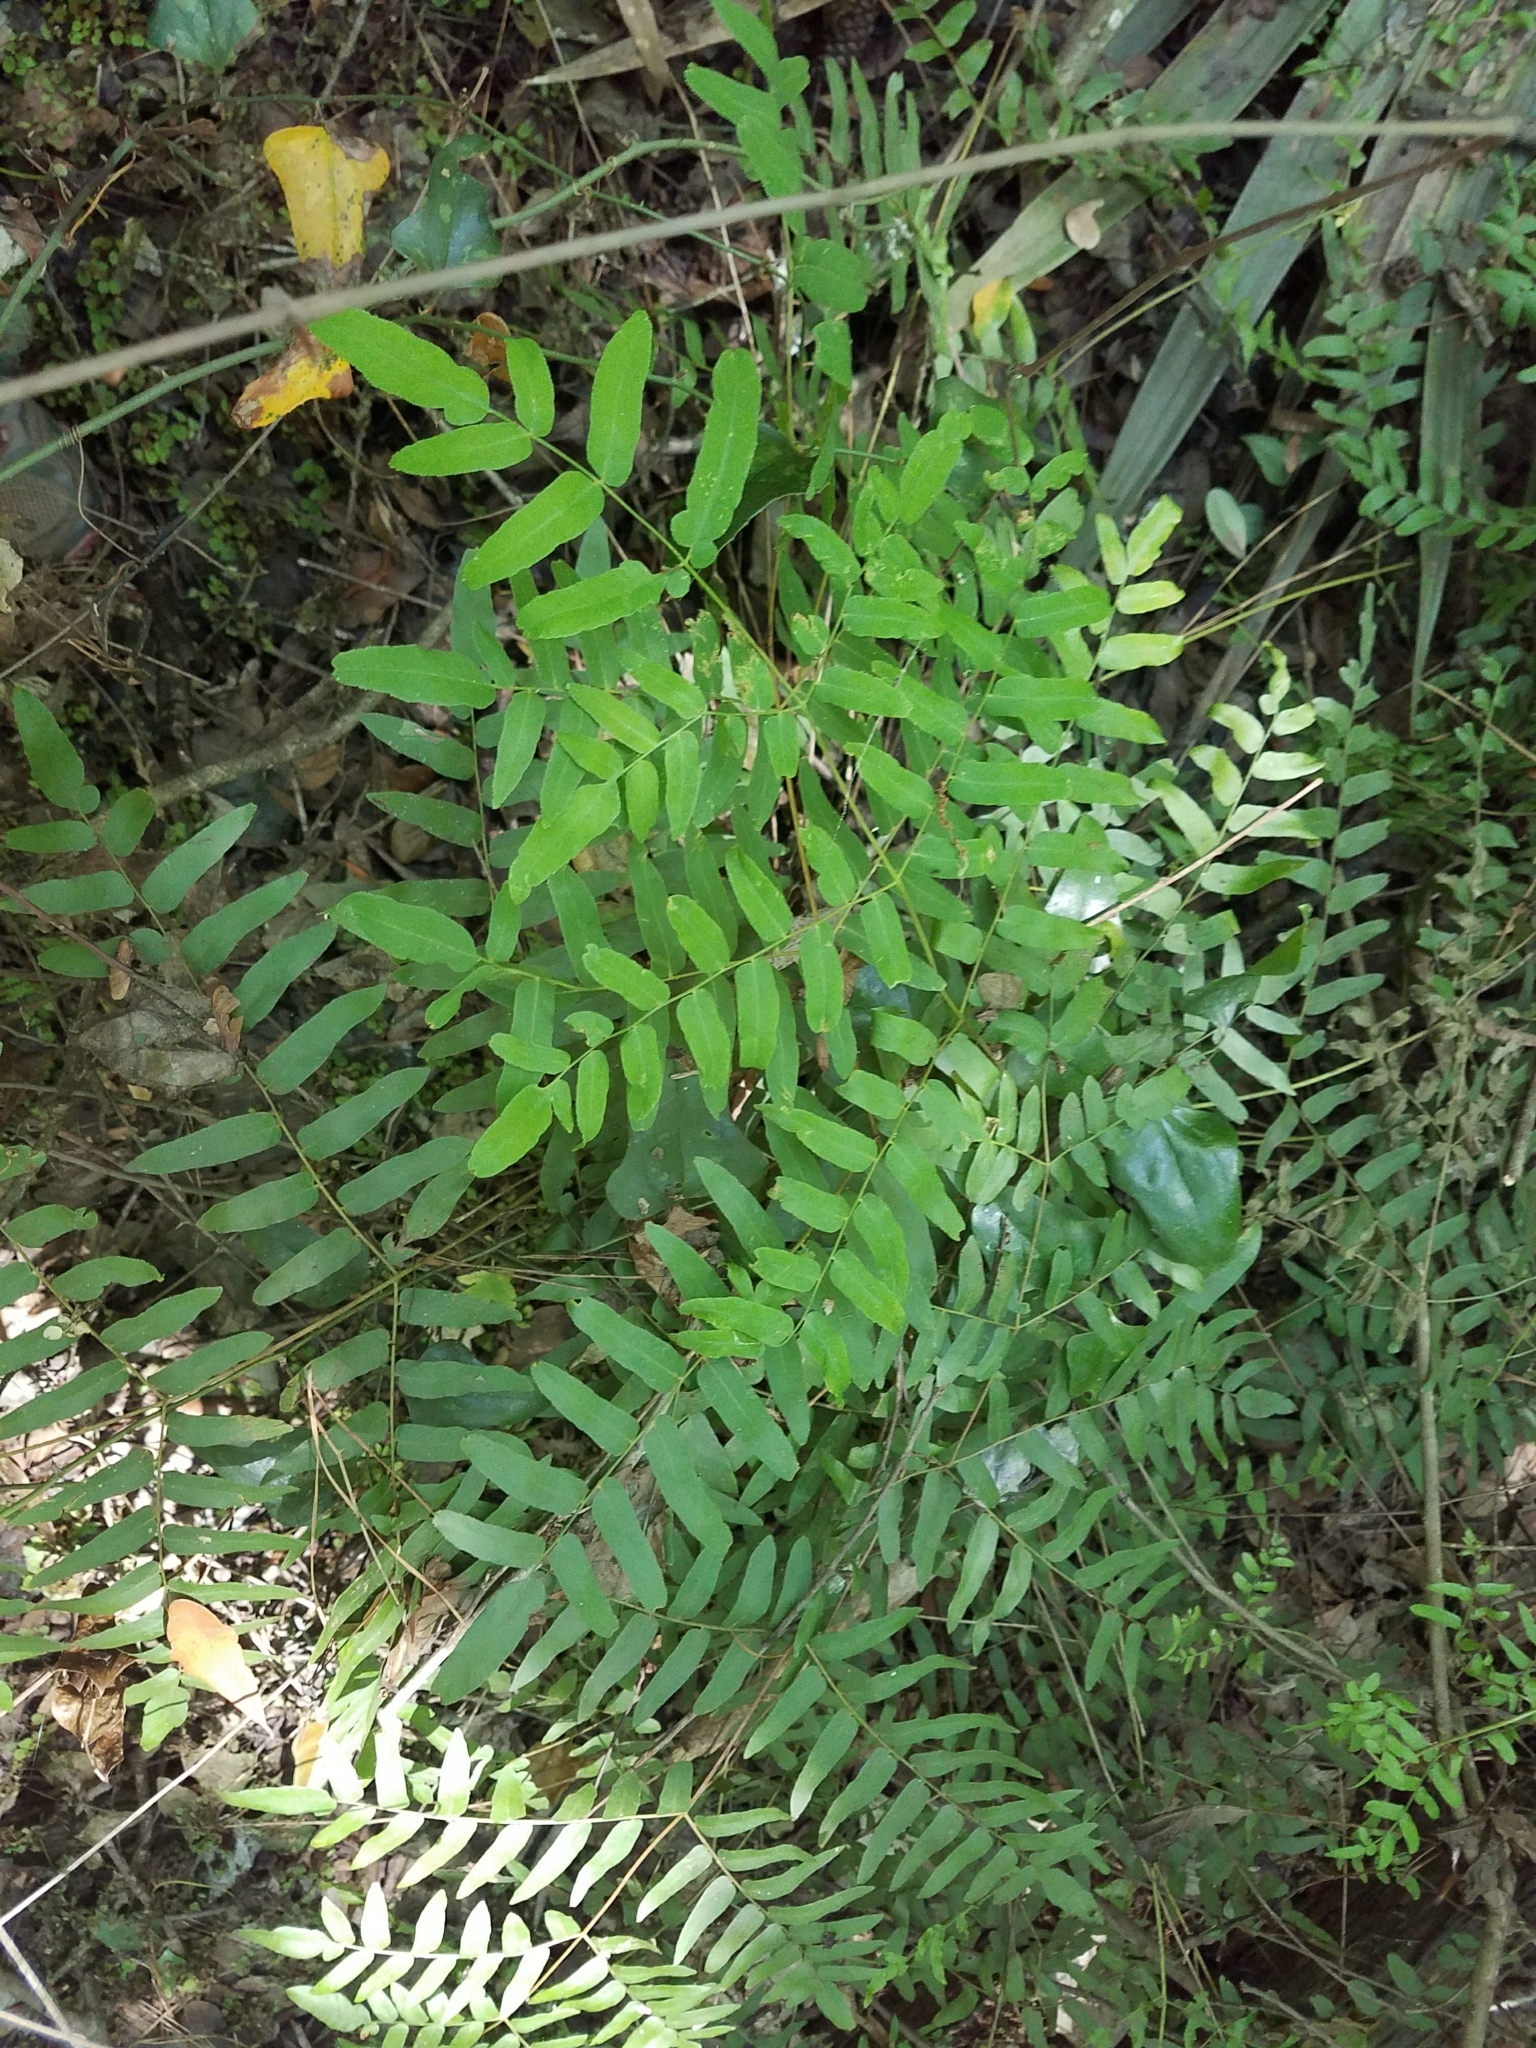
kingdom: Plantae
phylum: Tracheophyta
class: Polypodiopsida
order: Osmundales
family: Osmundaceae
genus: Osmunda
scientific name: Osmunda spectabilis
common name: American royal fern
